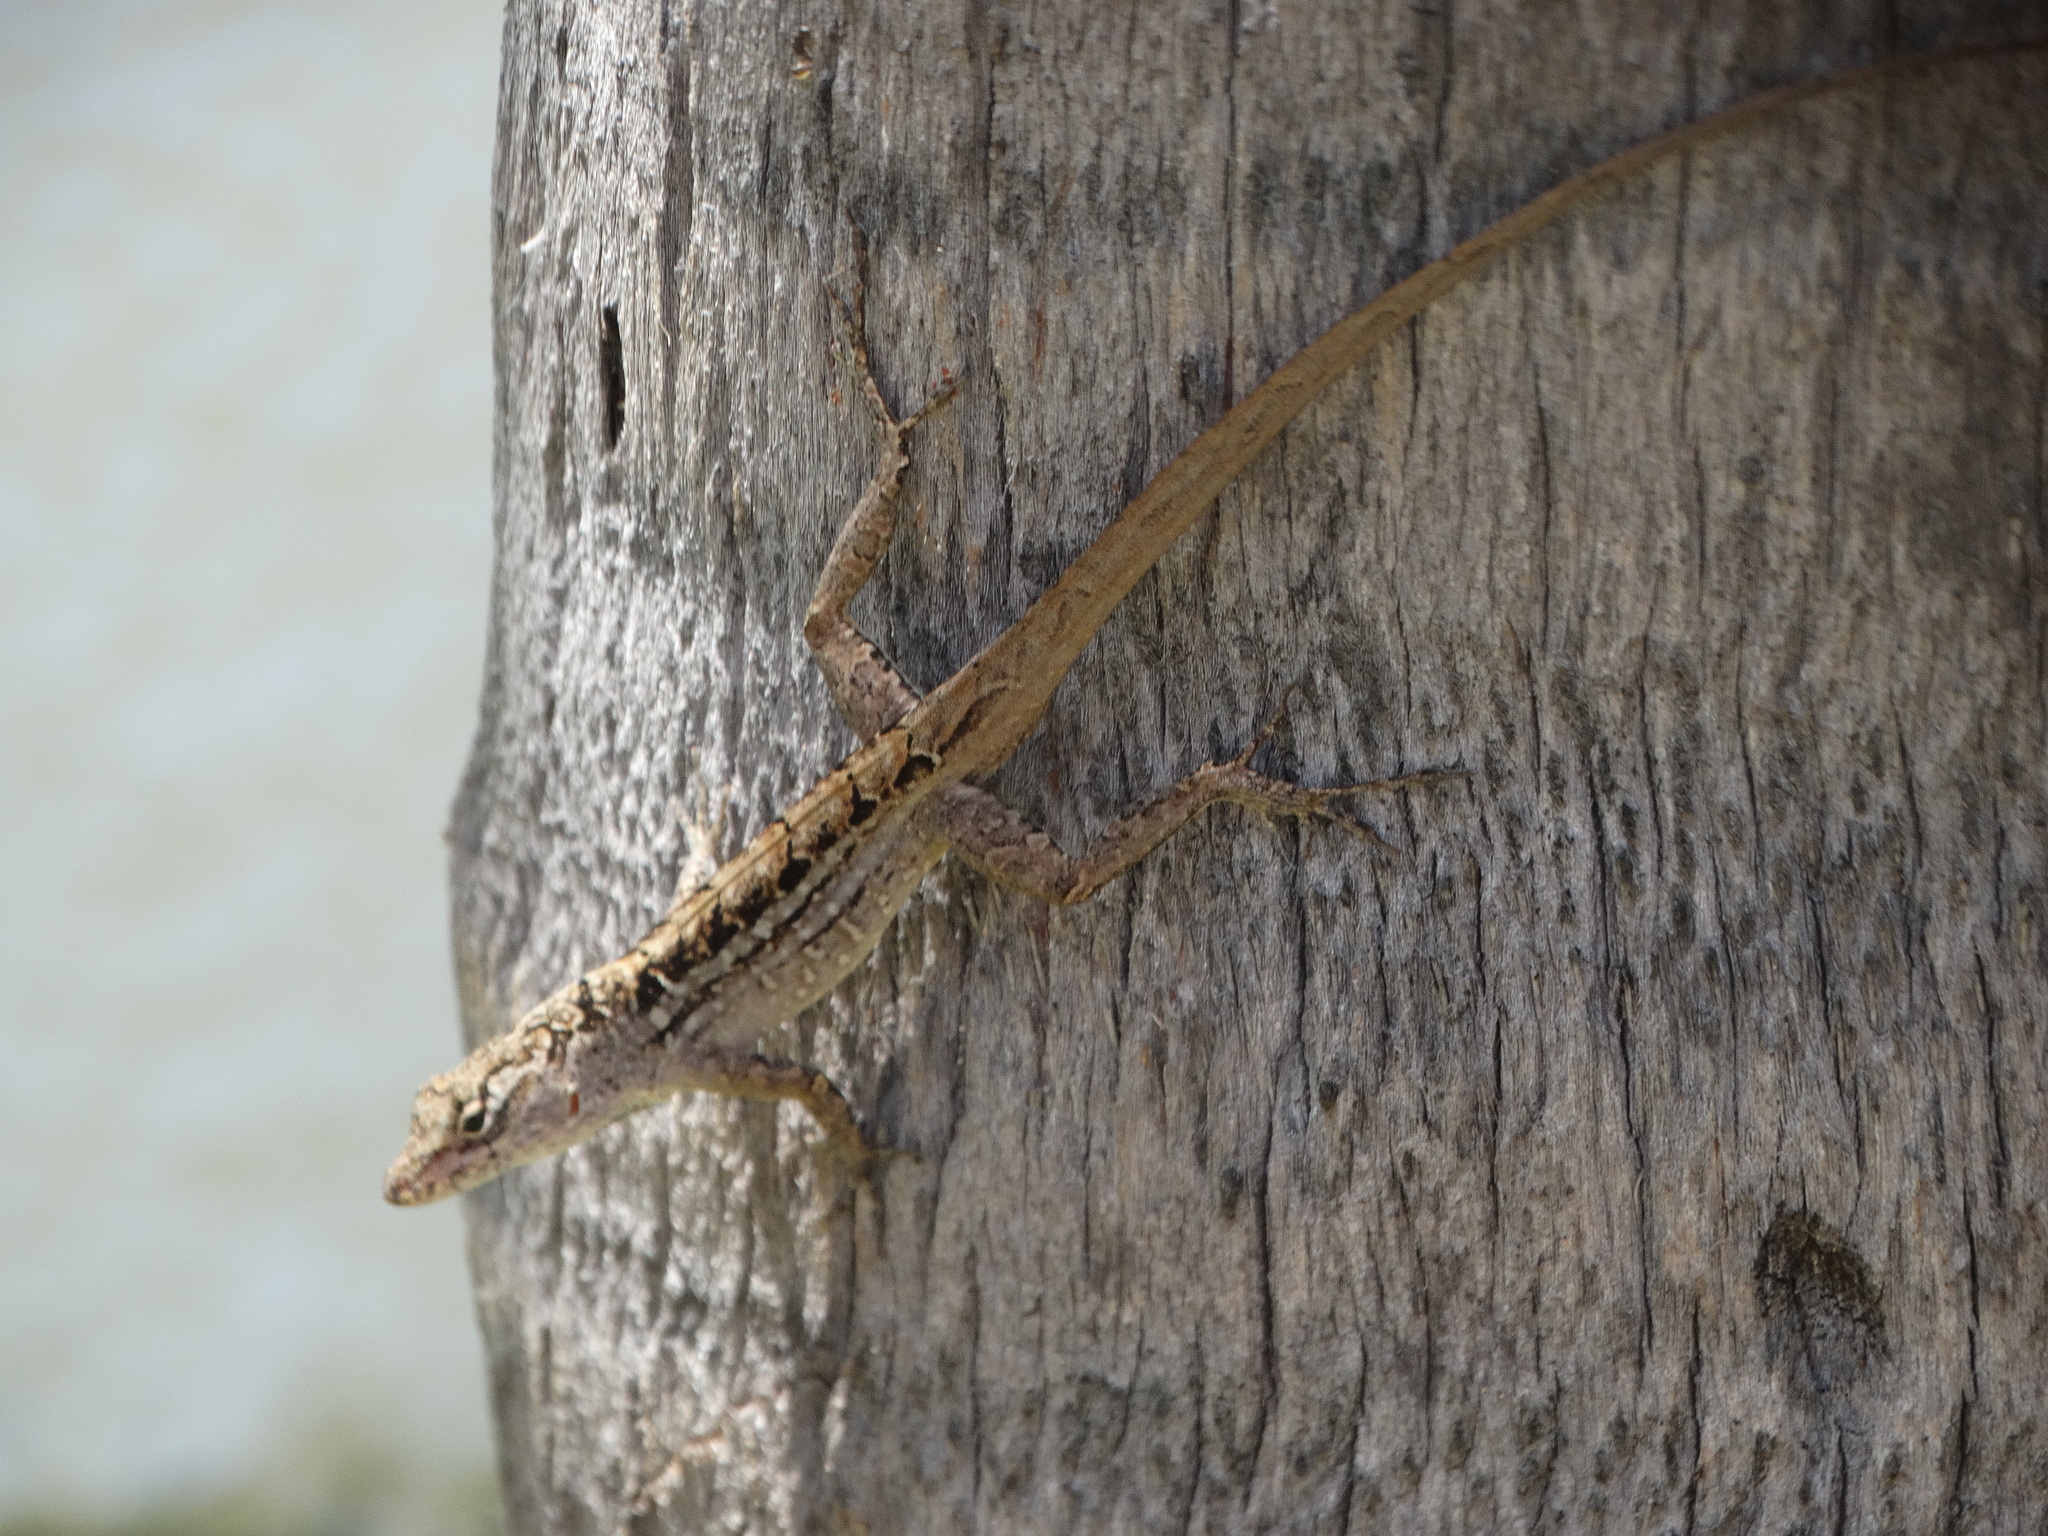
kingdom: Animalia
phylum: Chordata
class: Squamata
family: Dactyloidae
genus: Anolis
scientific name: Anolis sagrei
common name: Brown anole
